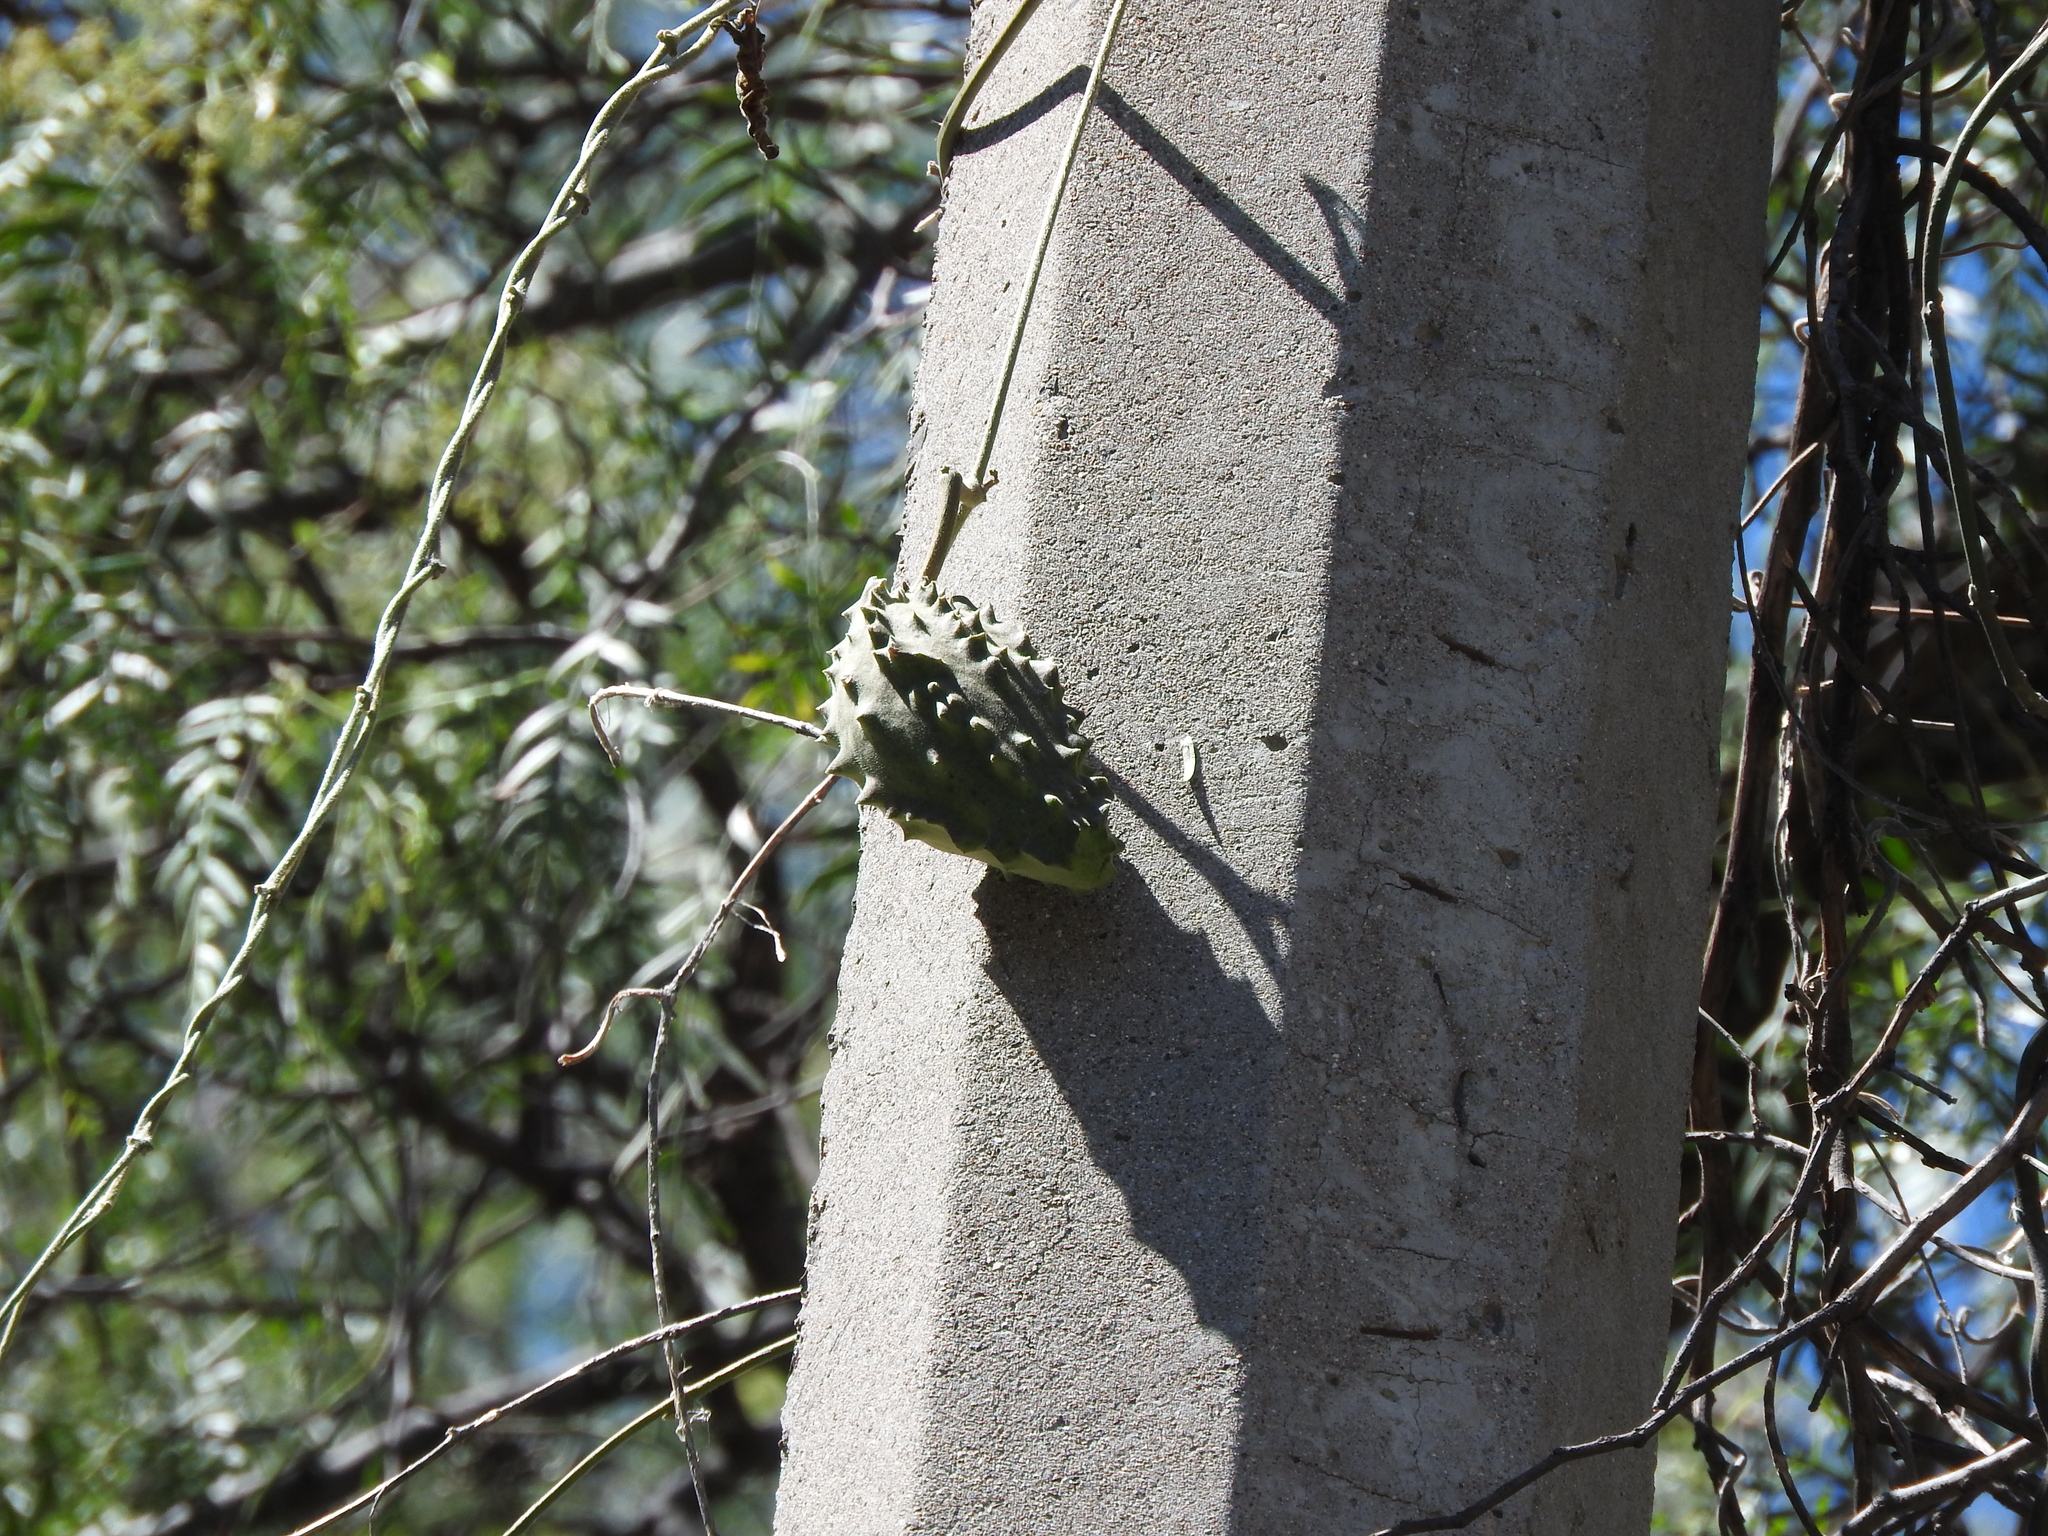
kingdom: Plantae
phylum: Tracheophyta
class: Magnoliopsida
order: Gentianales
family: Apocynaceae
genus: Gonolobus
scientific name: Gonolobus grandiflorus
